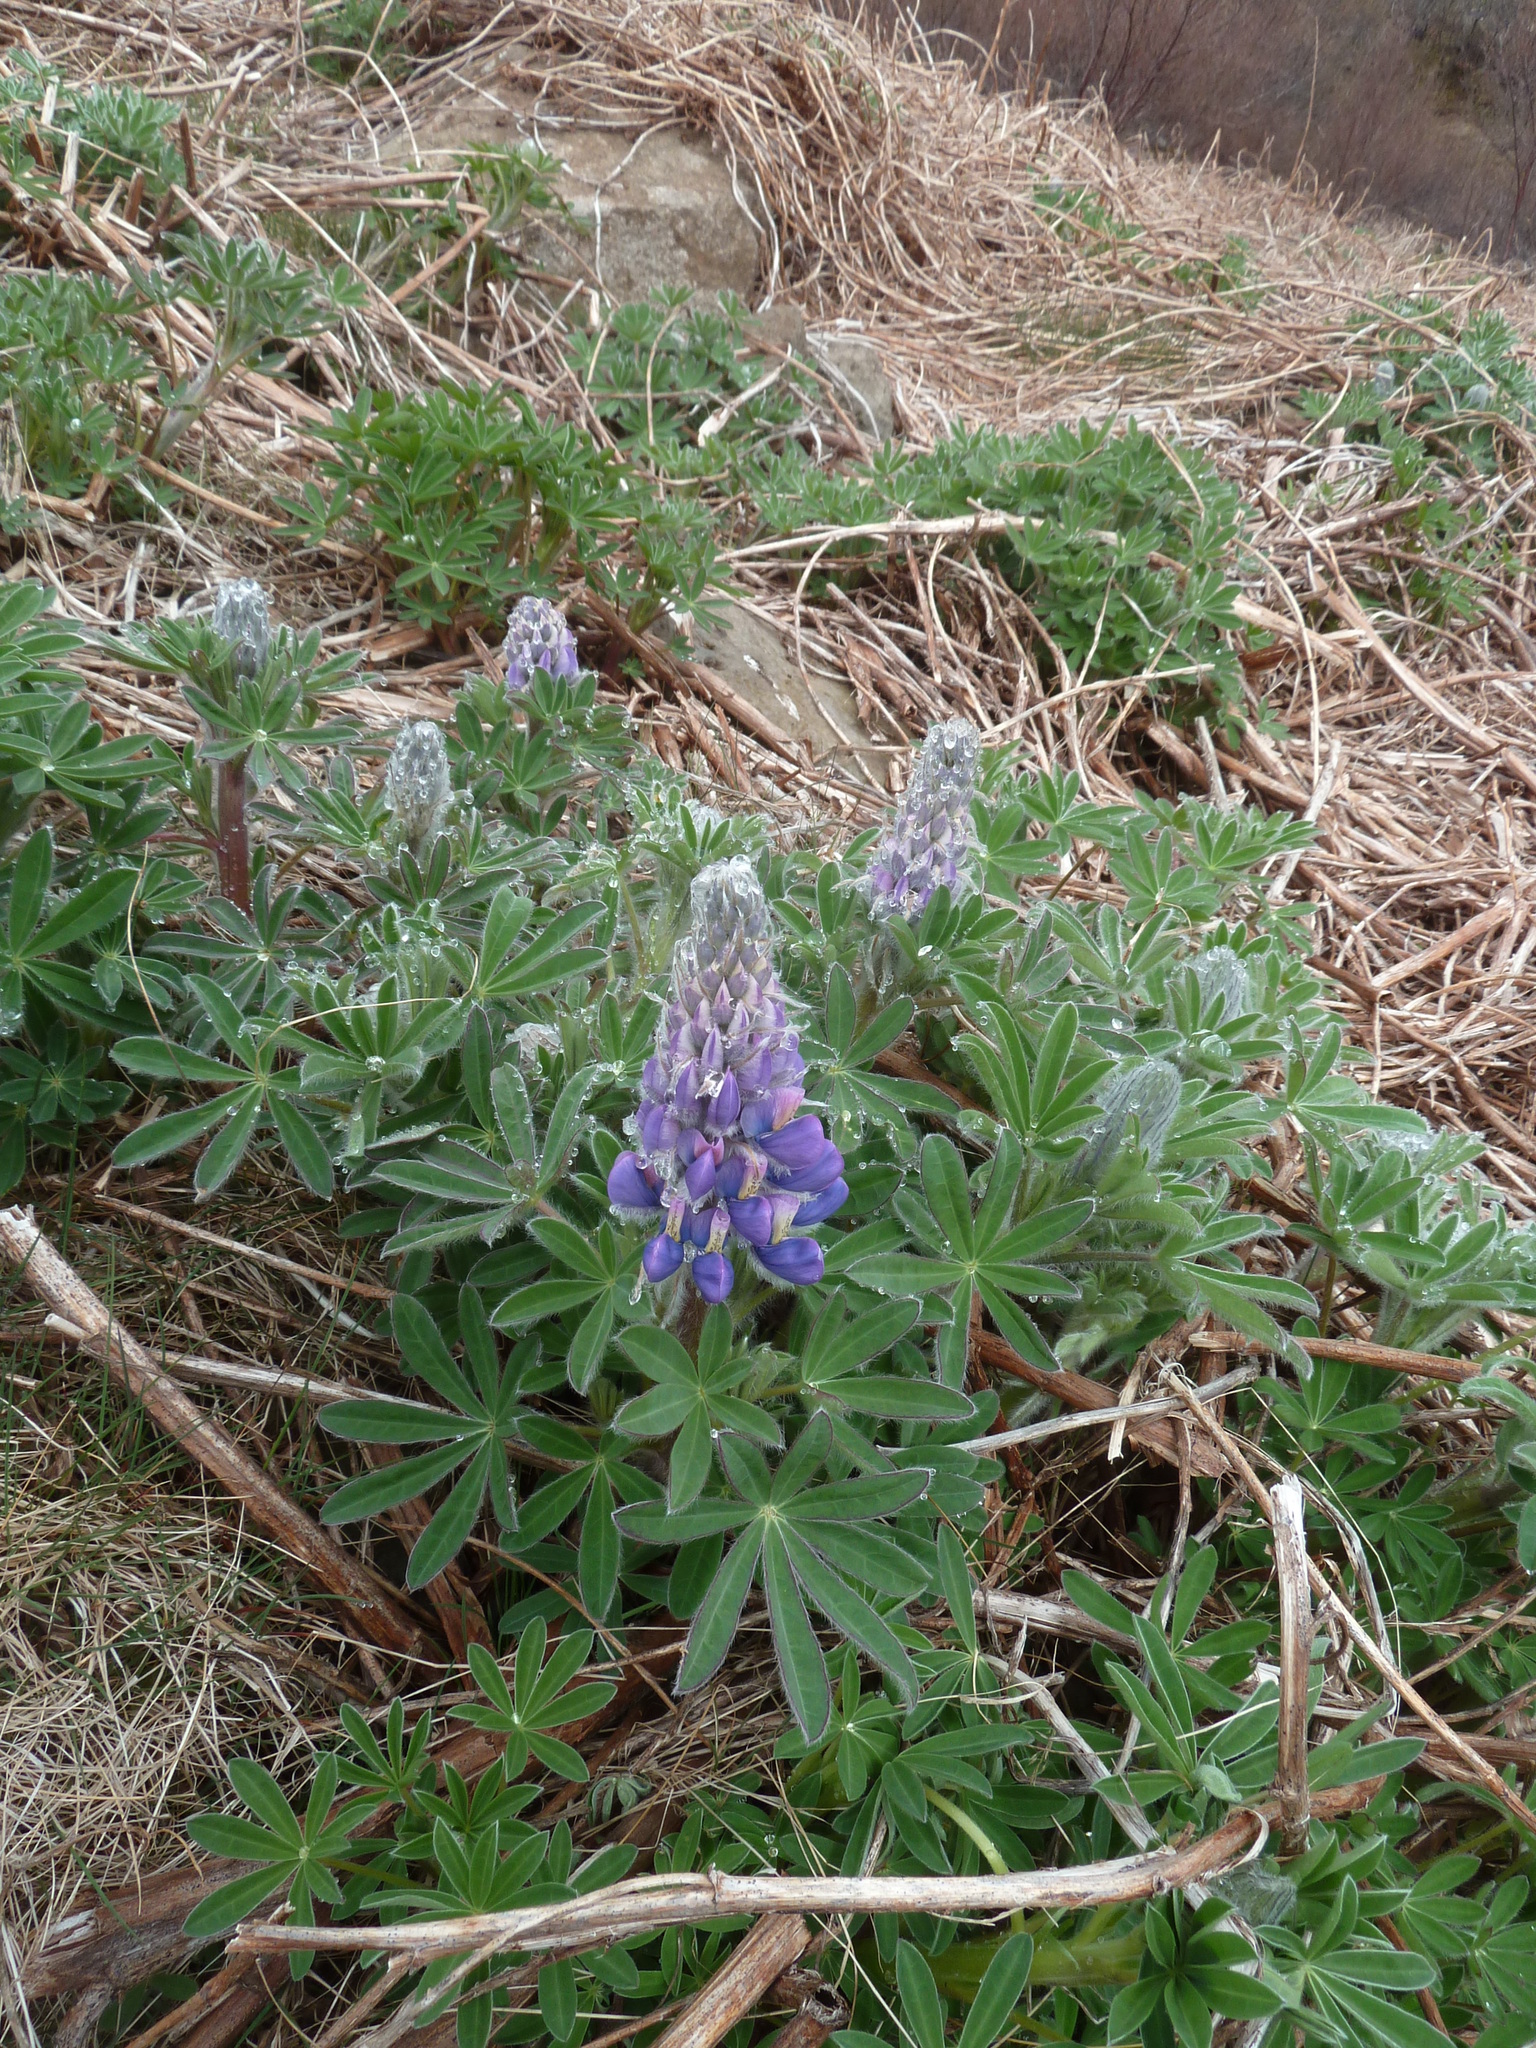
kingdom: Plantae
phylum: Tracheophyta
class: Magnoliopsida
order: Fabales
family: Fabaceae
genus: Lupinus
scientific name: Lupinus nootkatensis
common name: Nootka lupine
